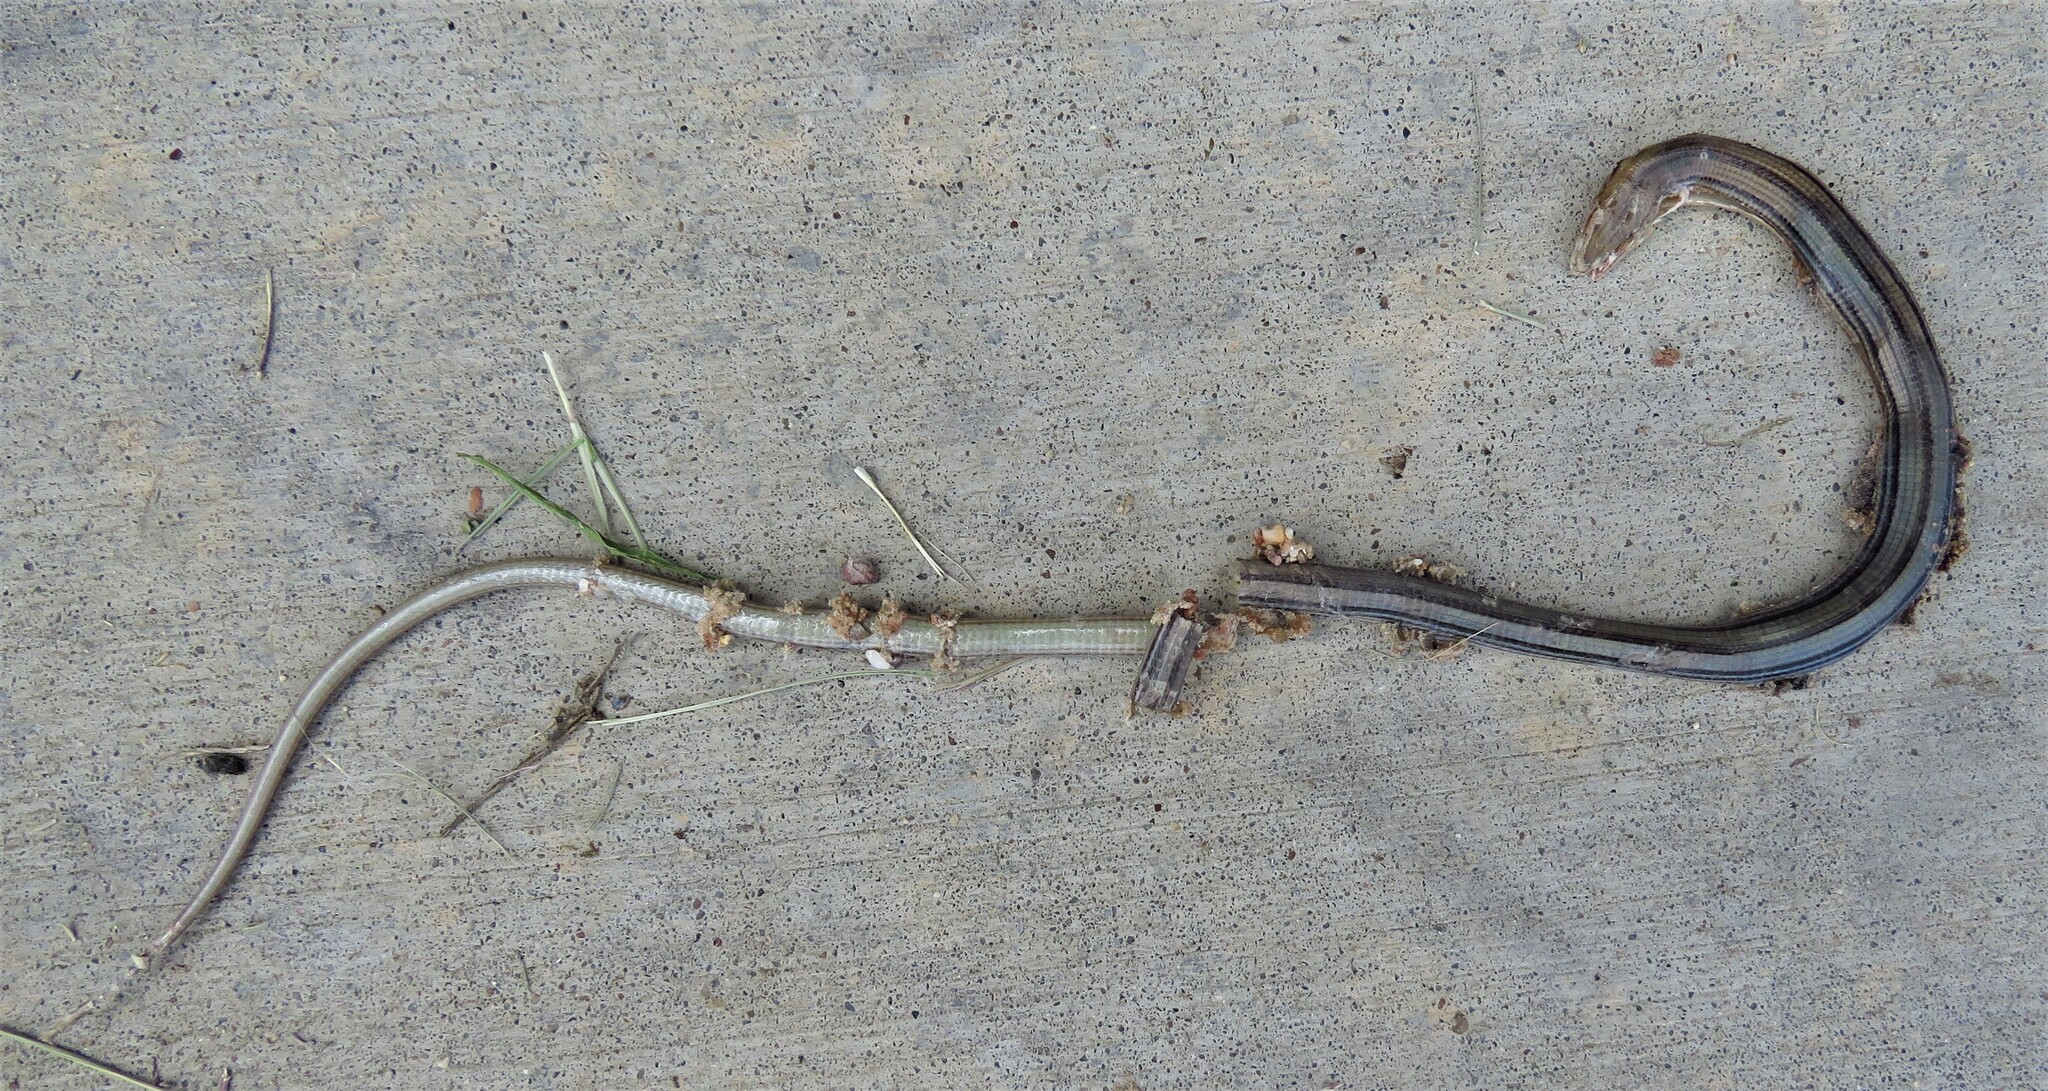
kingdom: Animalia
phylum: Chordata
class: Squamata
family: Anguidae
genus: Ophisaurus
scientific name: Ophisaurus attenuatus
